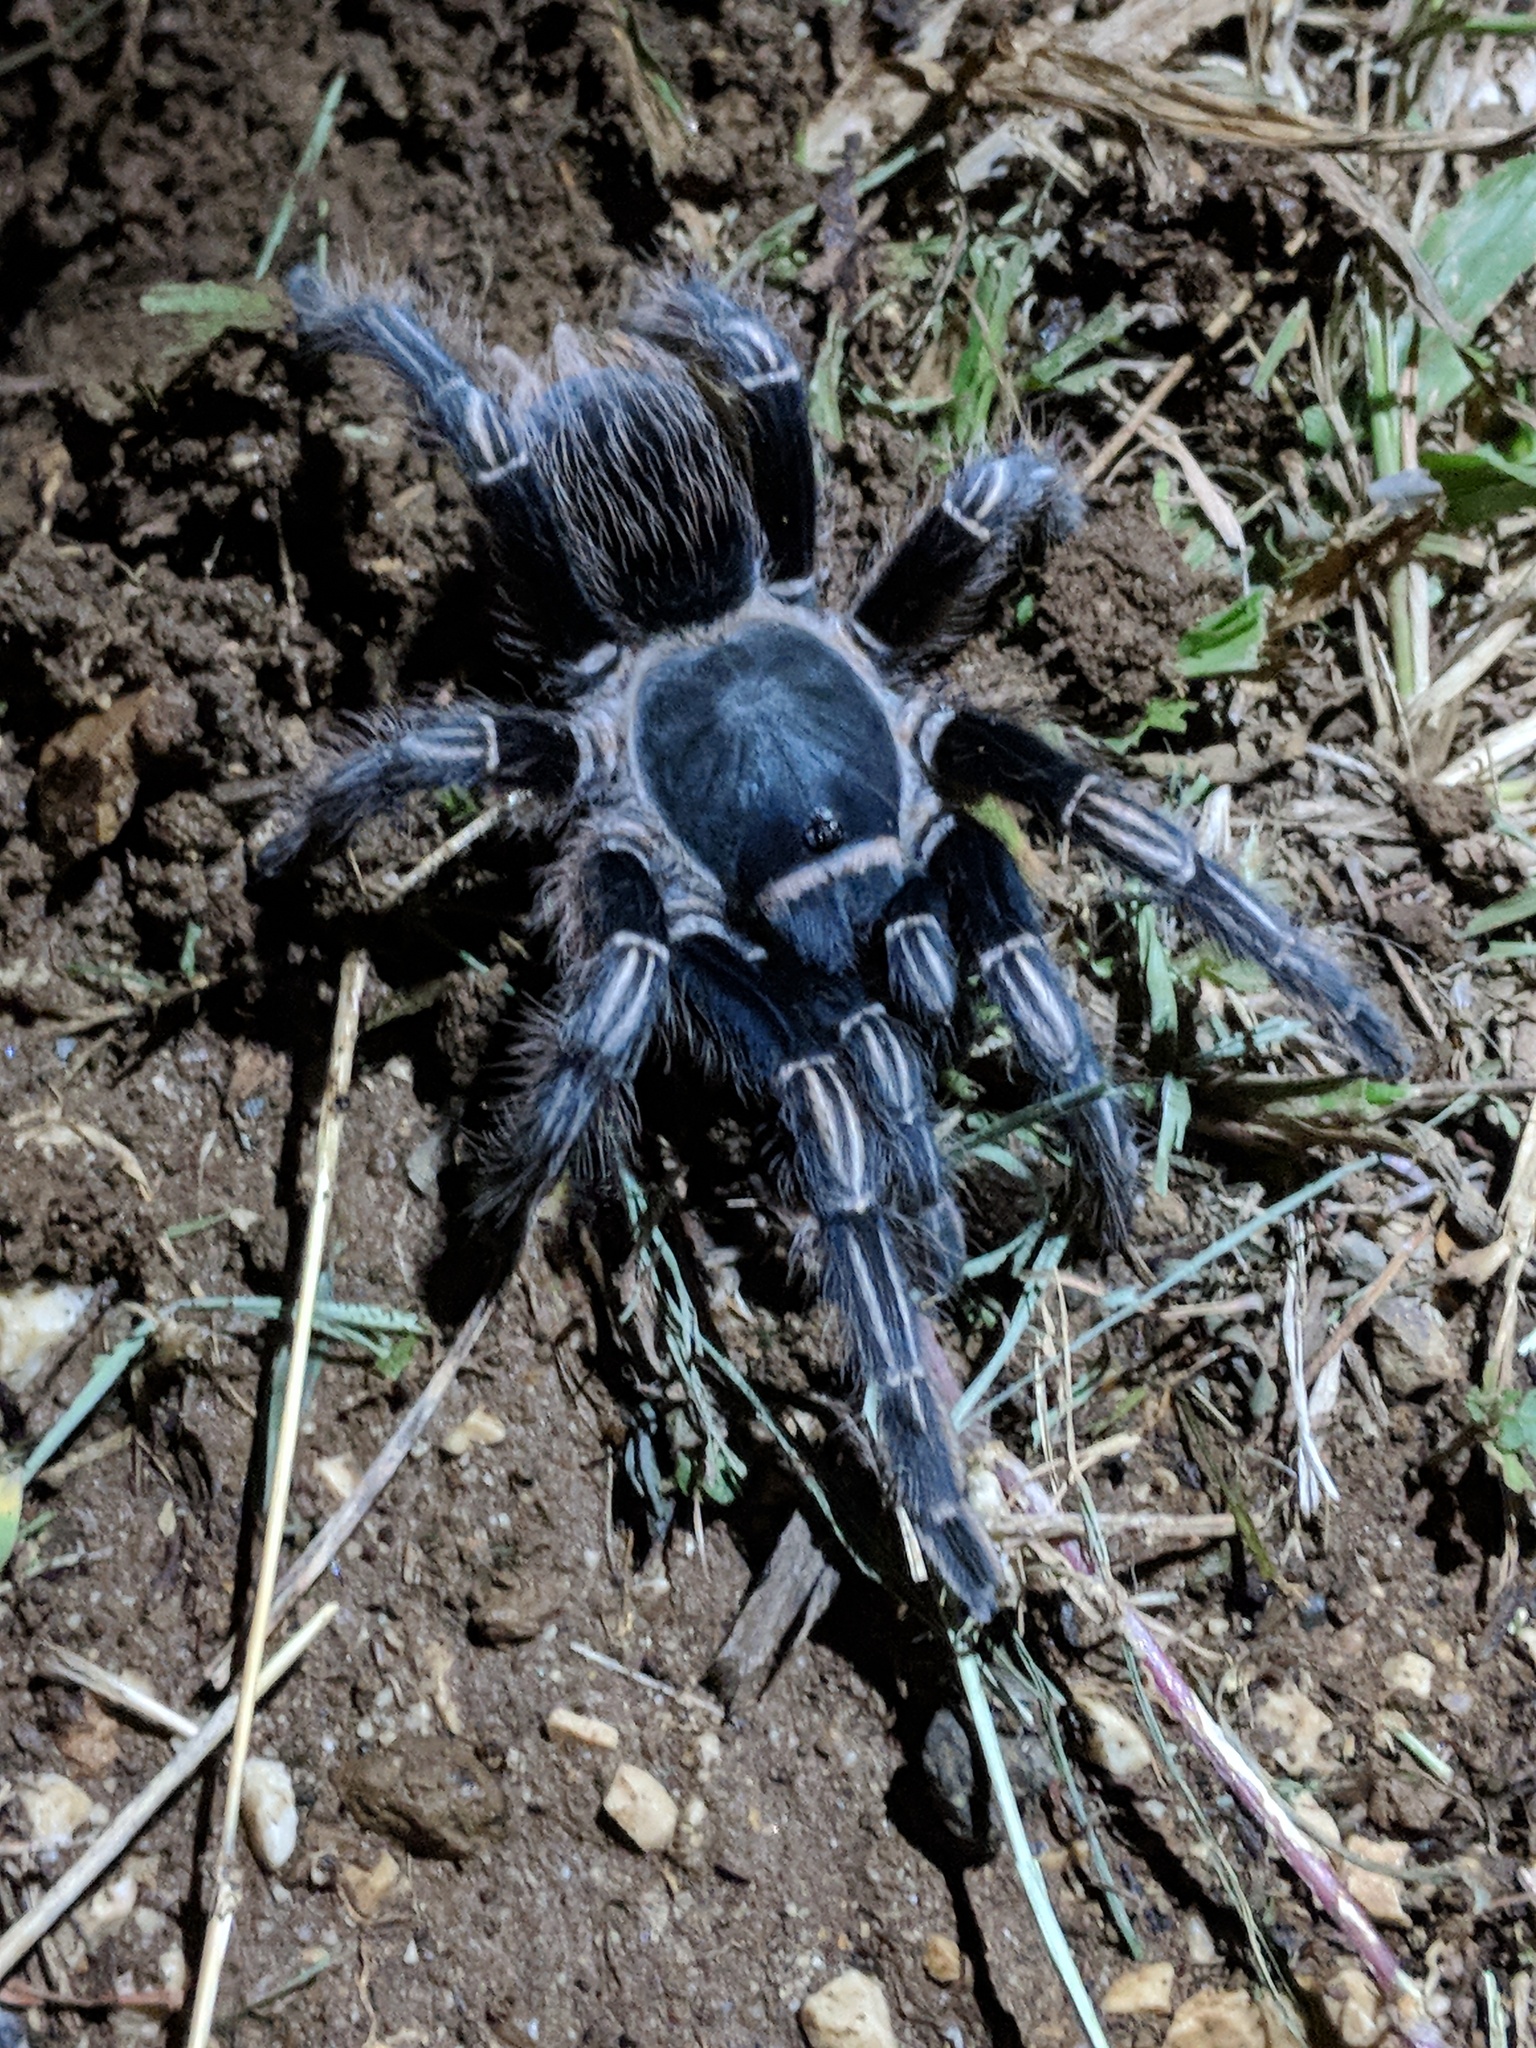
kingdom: Animalia
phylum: Arthropoda
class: Arachnida
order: Araneae
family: Theraphosidae
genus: Aphonopelma
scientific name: Aphonopelma seemanni
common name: Tarantula spiders
